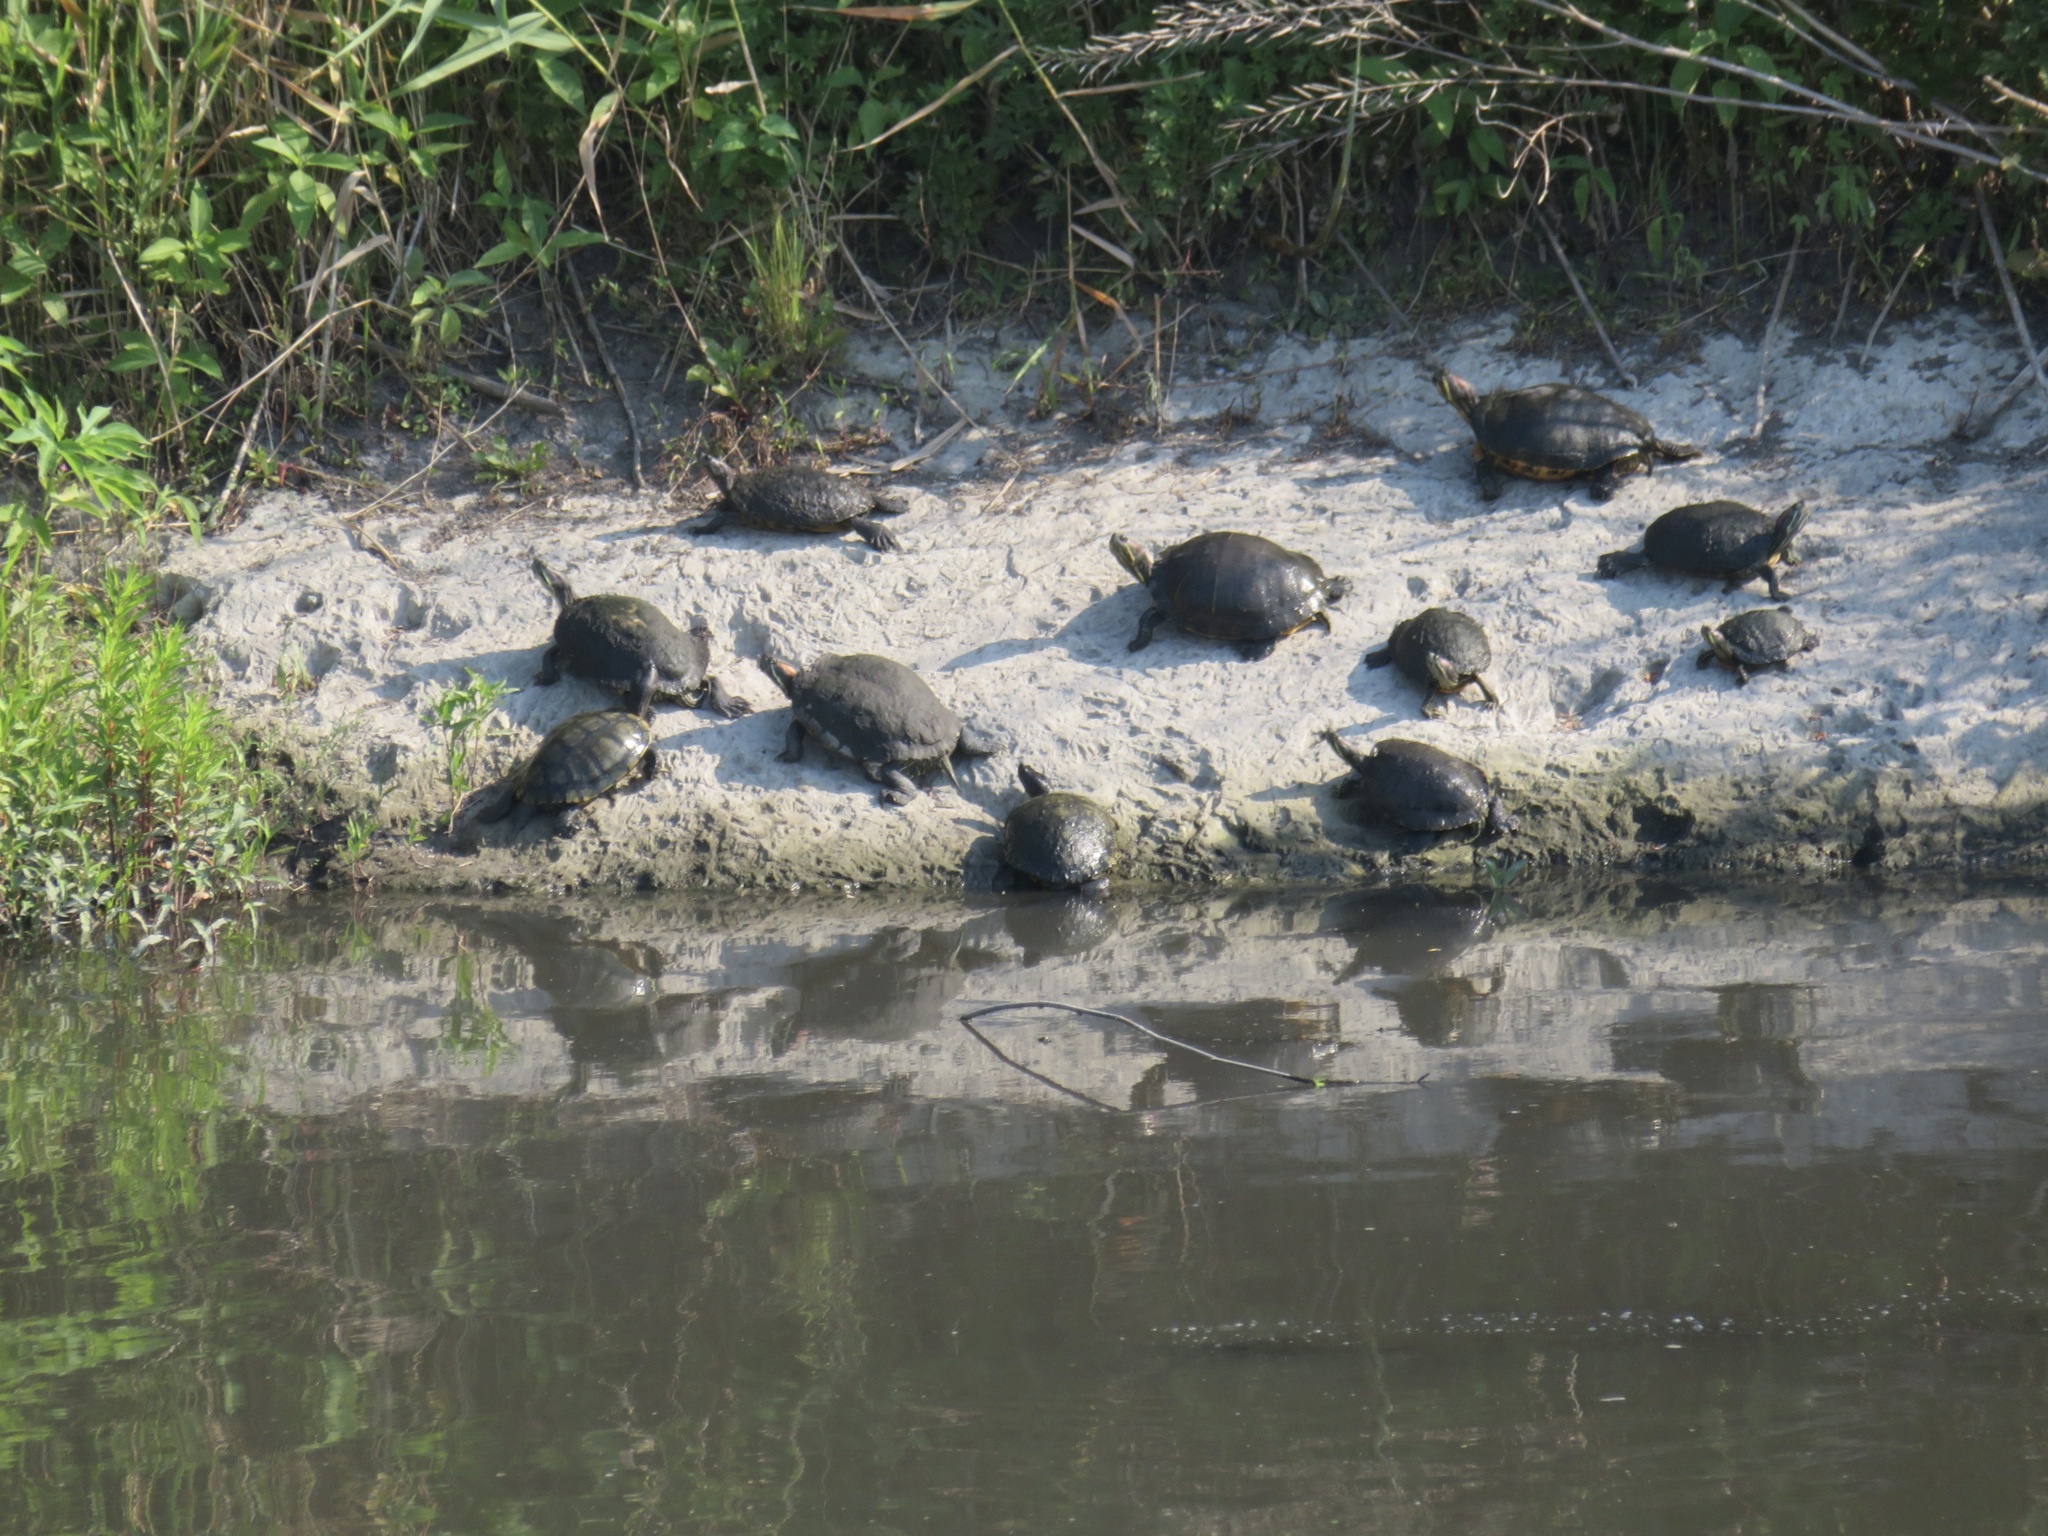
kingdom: Animalia
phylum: Chordata
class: Testudines
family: Emydidae
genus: Trachemys
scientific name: Trachemys scripta
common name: Slider
